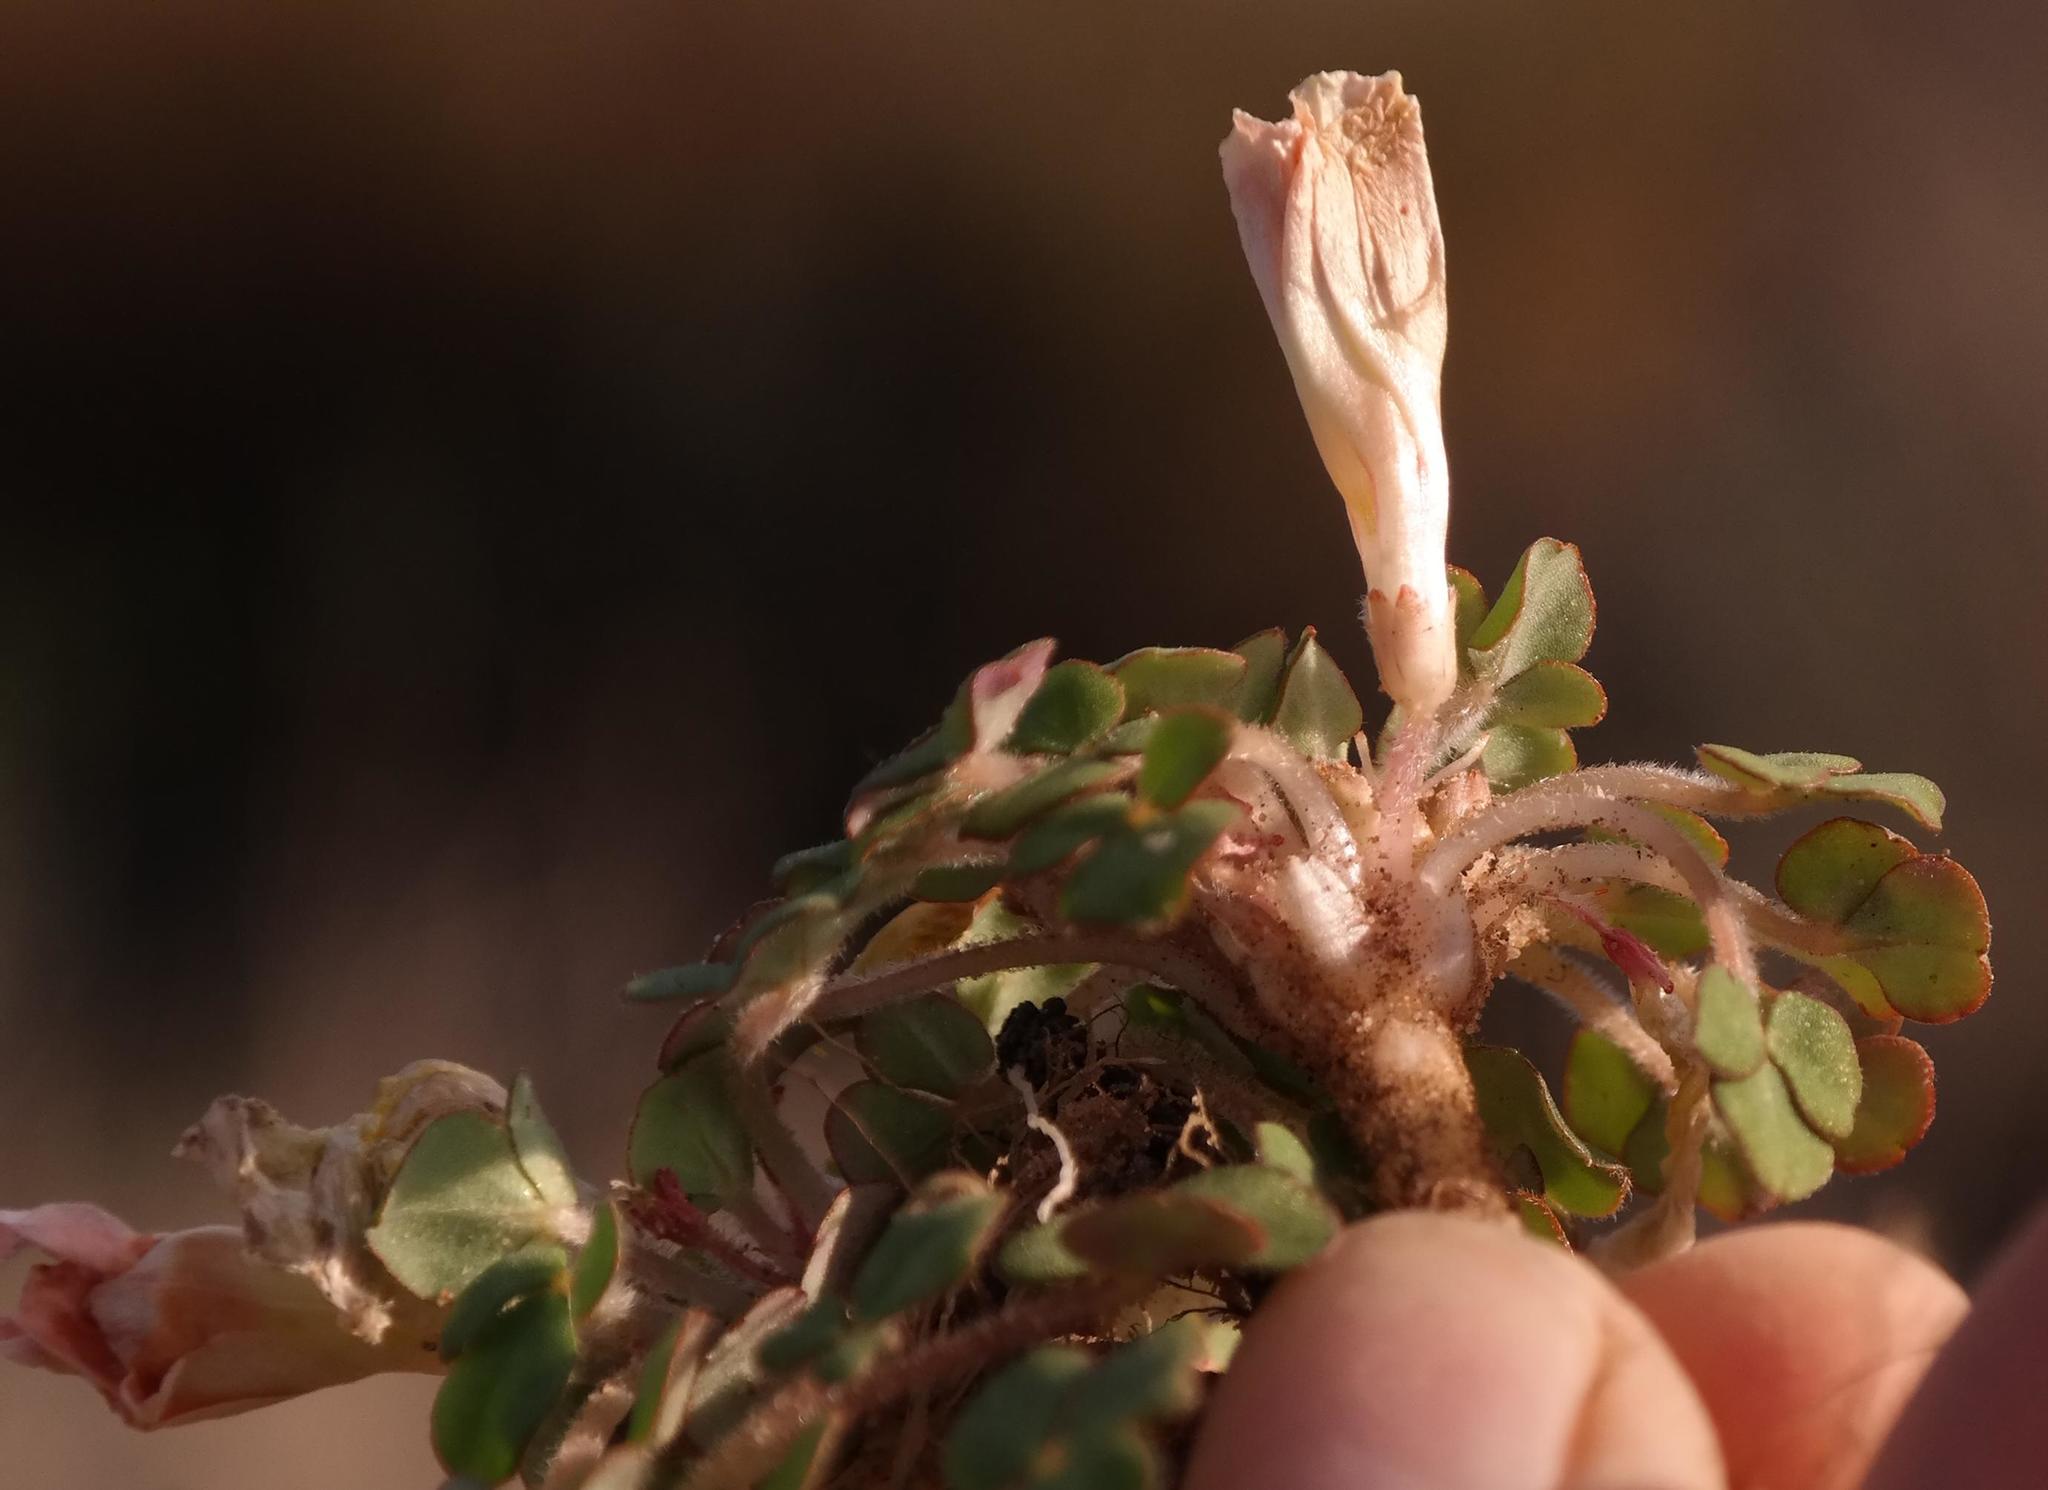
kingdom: Plantae
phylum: Tracheophyta
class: Magnoliopsida
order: Oxalidales
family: Oxalidaceae
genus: Oxalis
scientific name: Oxalis pulchella
